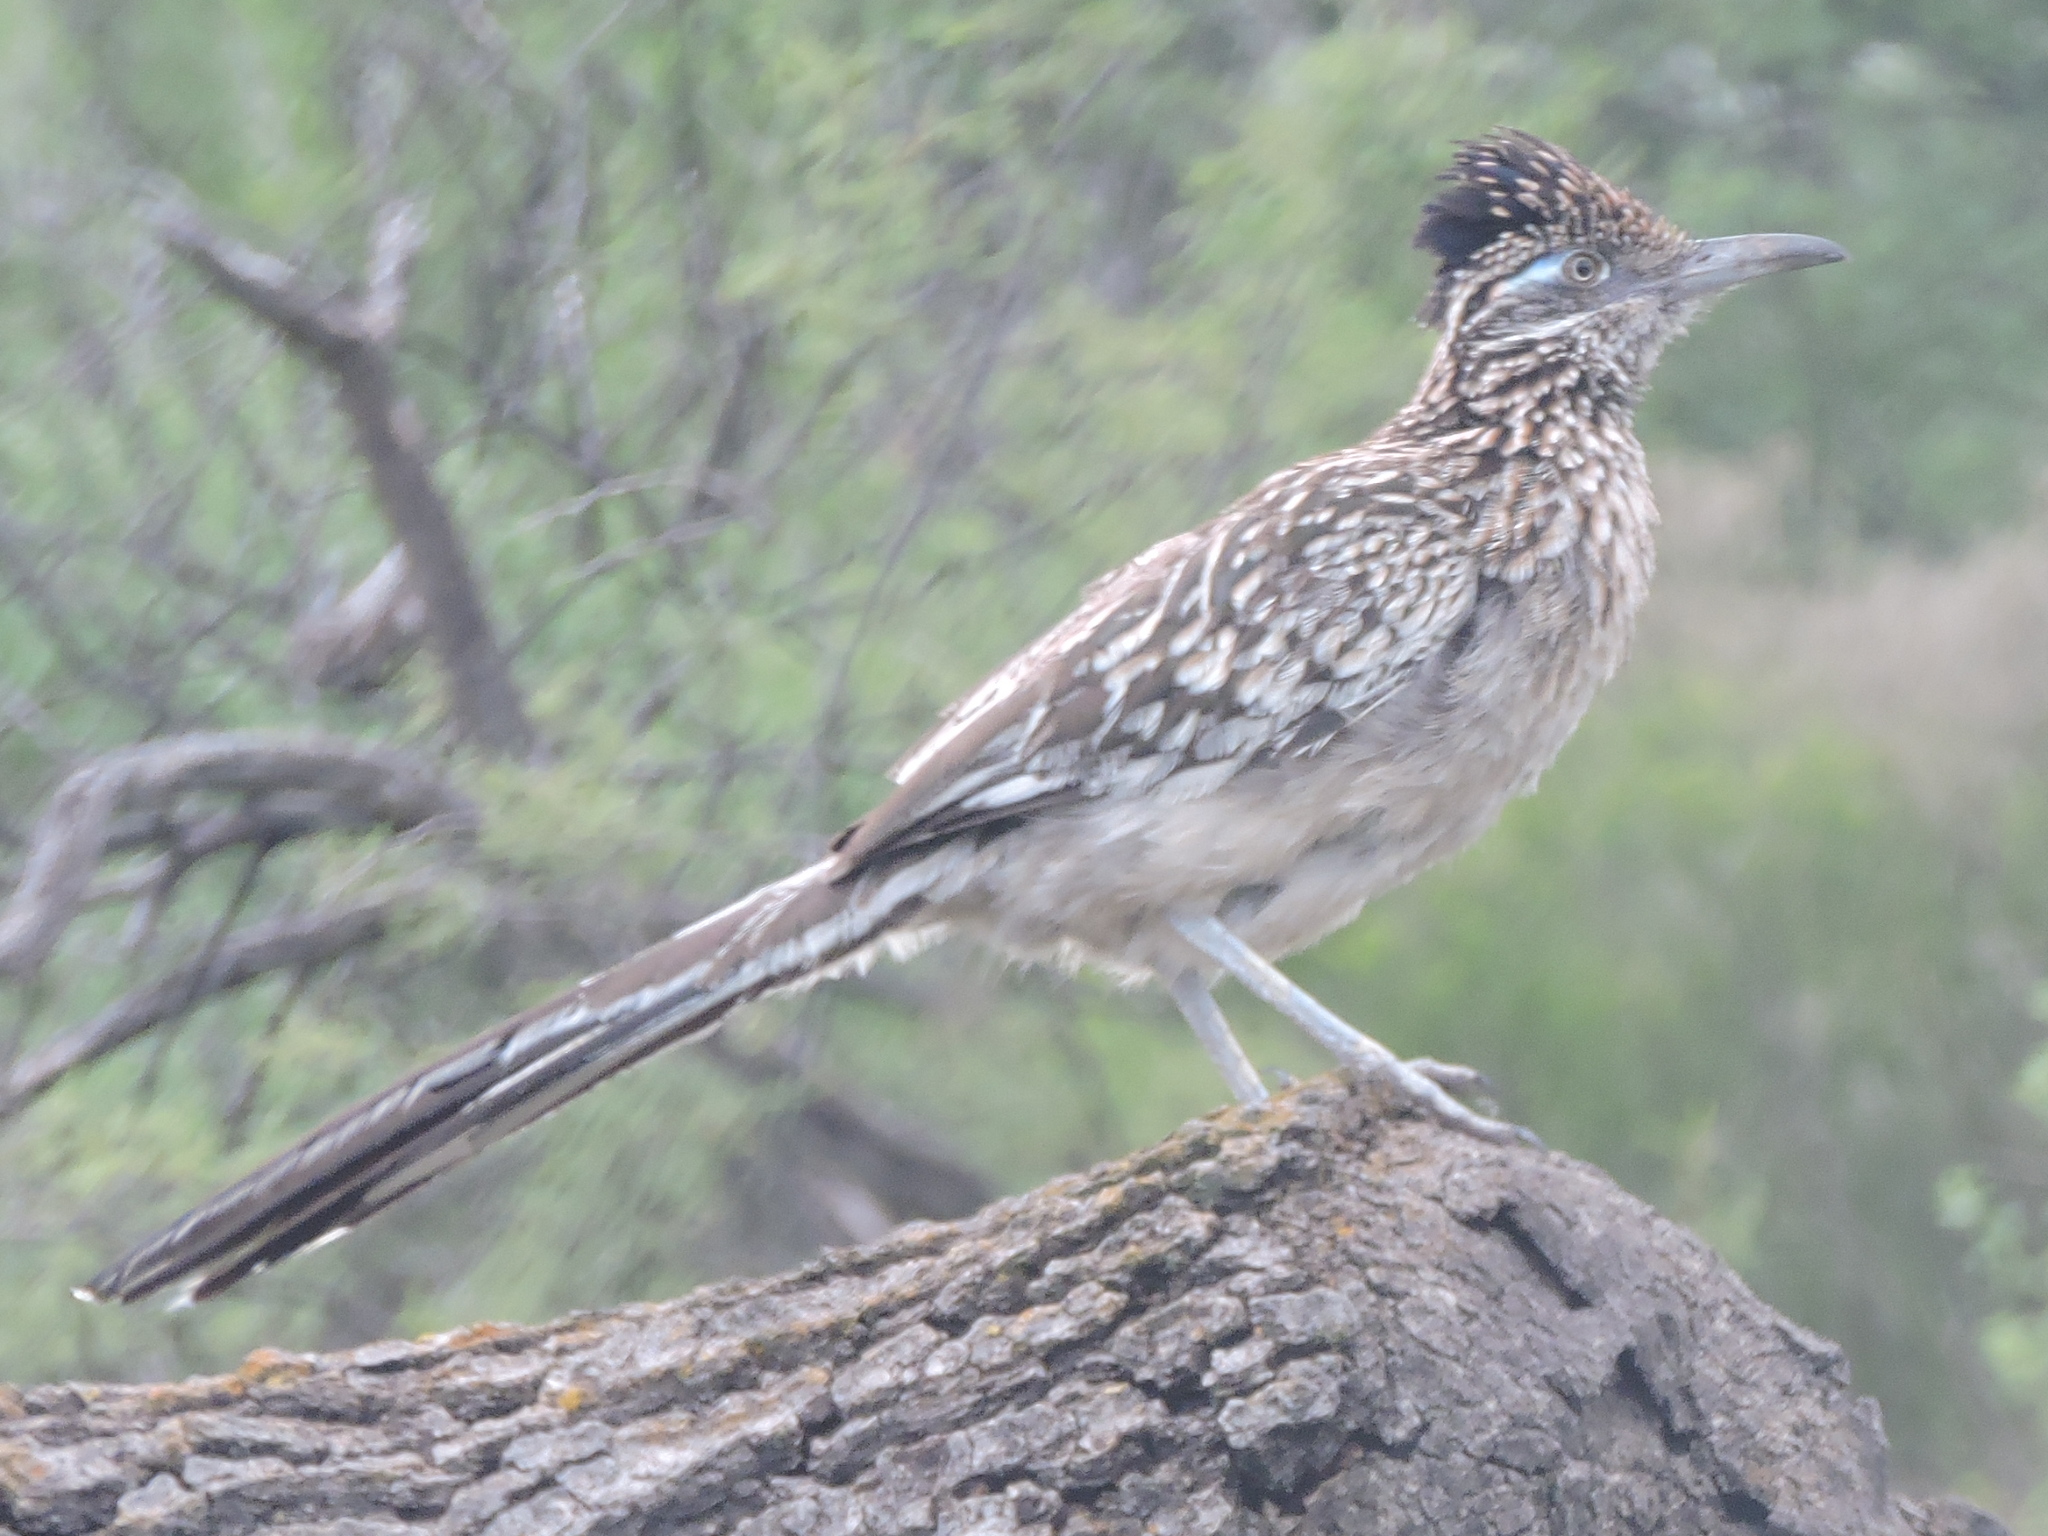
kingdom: Animalia
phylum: Chordata
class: Aves
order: Cuculiformes
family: Cuculidae
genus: Geococcyx
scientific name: Geococcyx californianus
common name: Greater roadrunner
